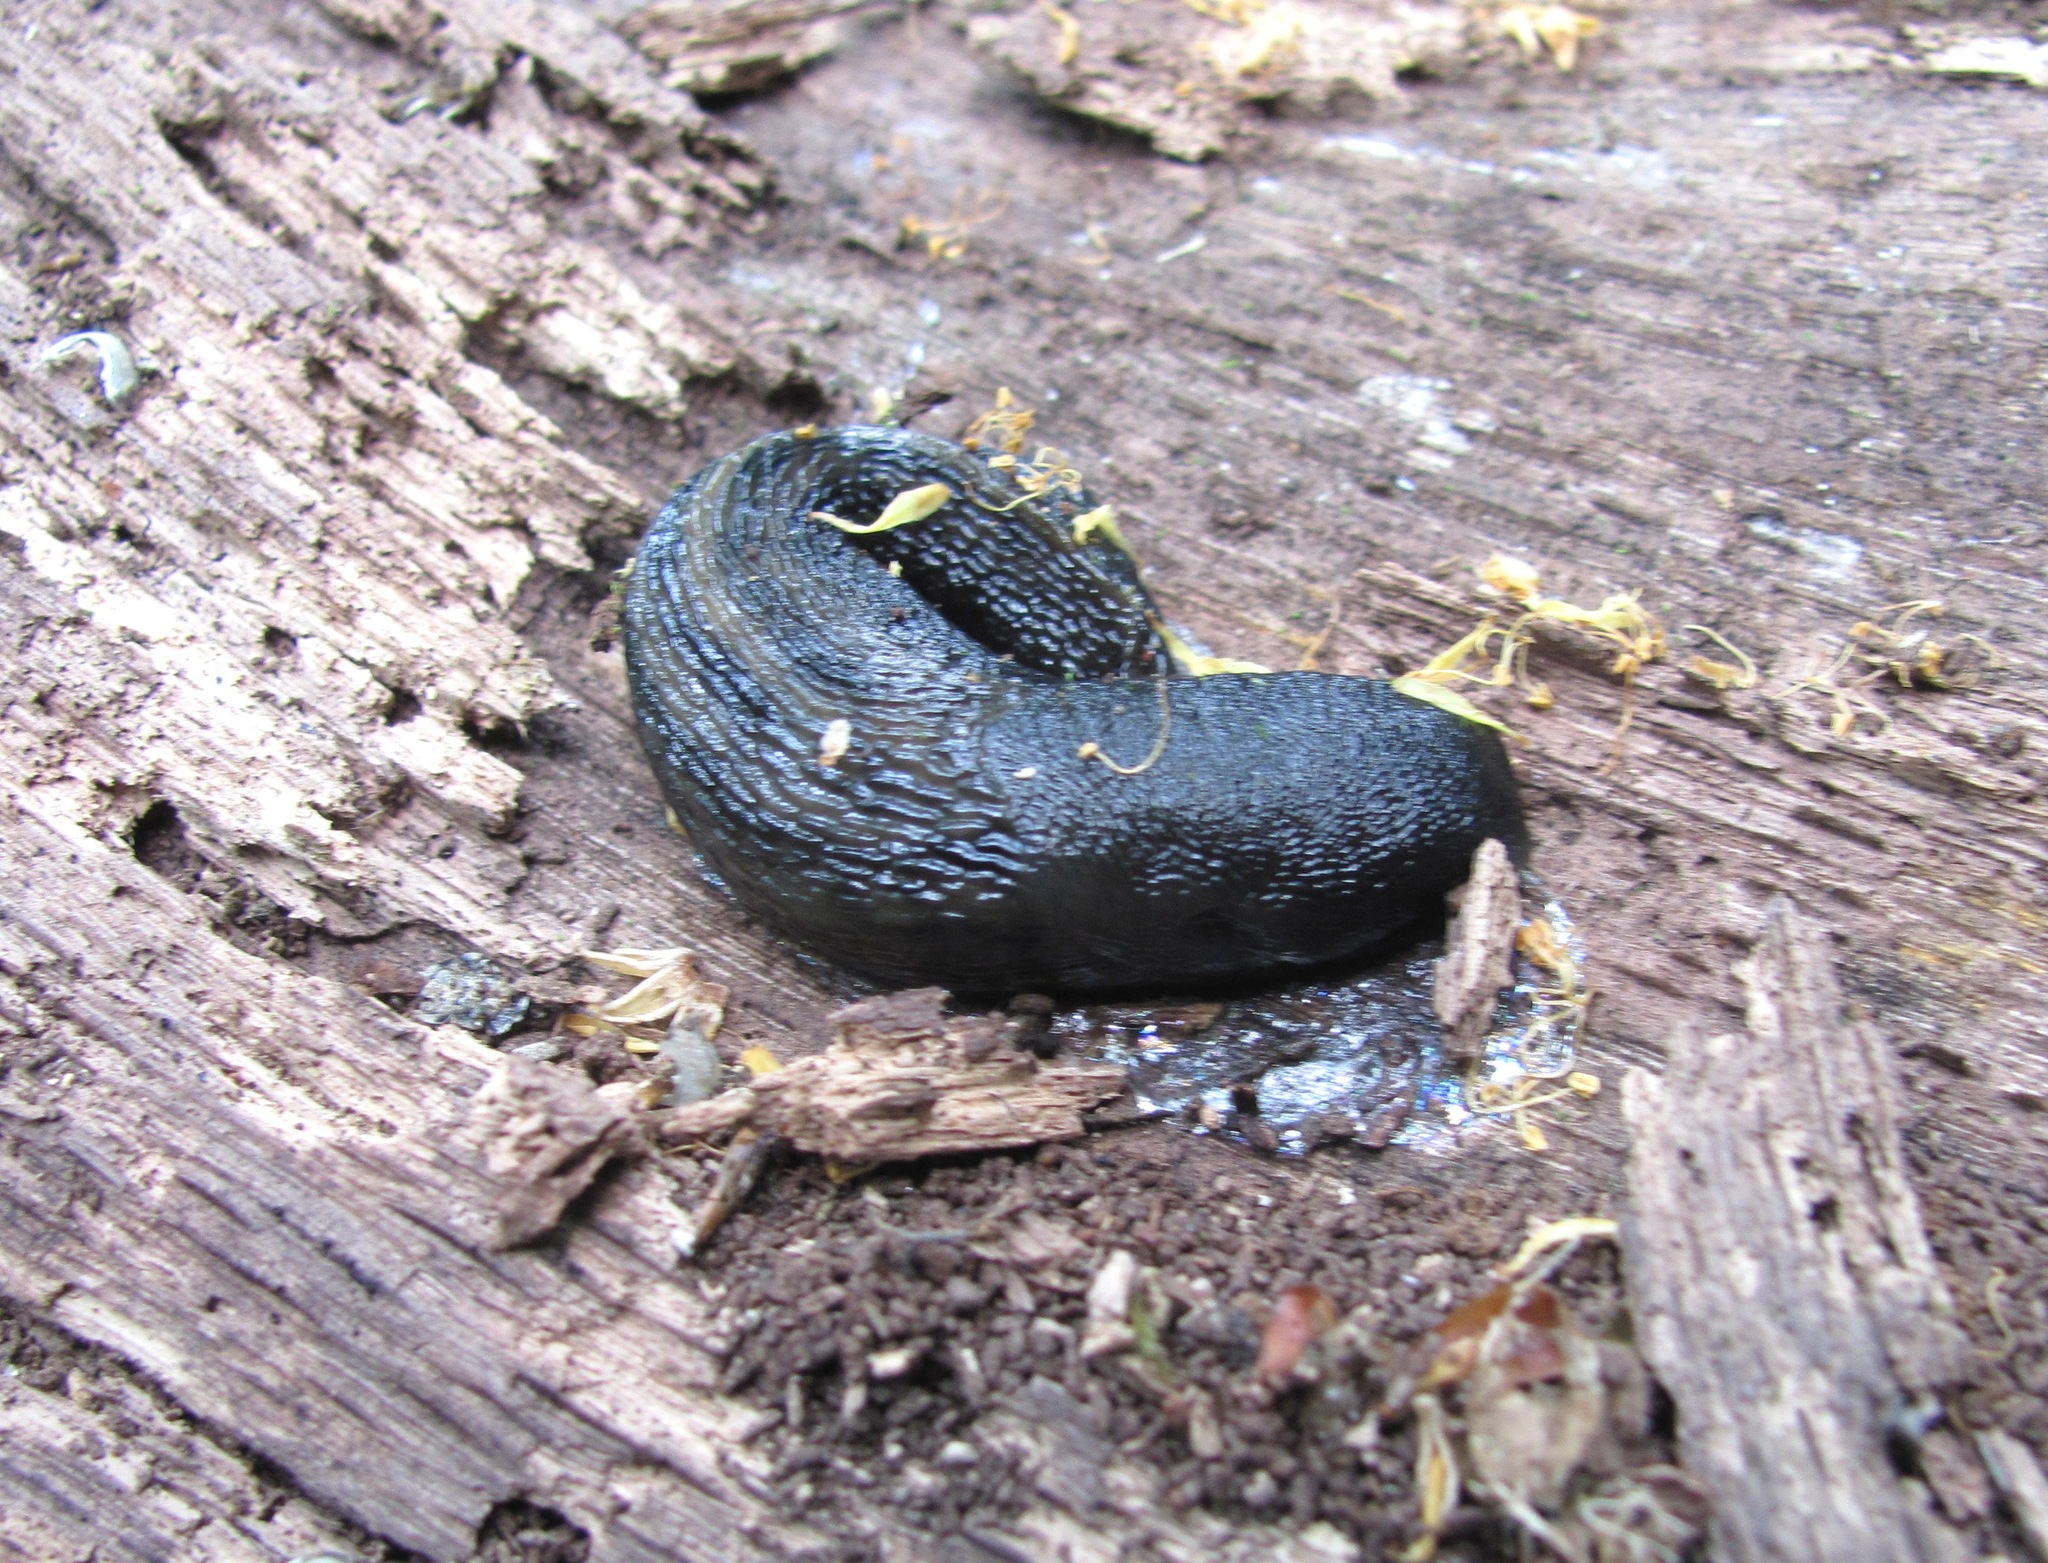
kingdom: Animalia
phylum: Mollusca
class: Gastropoda
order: Stylommatophora
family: Limacidae
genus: Limax
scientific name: Limax cinereoniger
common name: Ash-black slug
